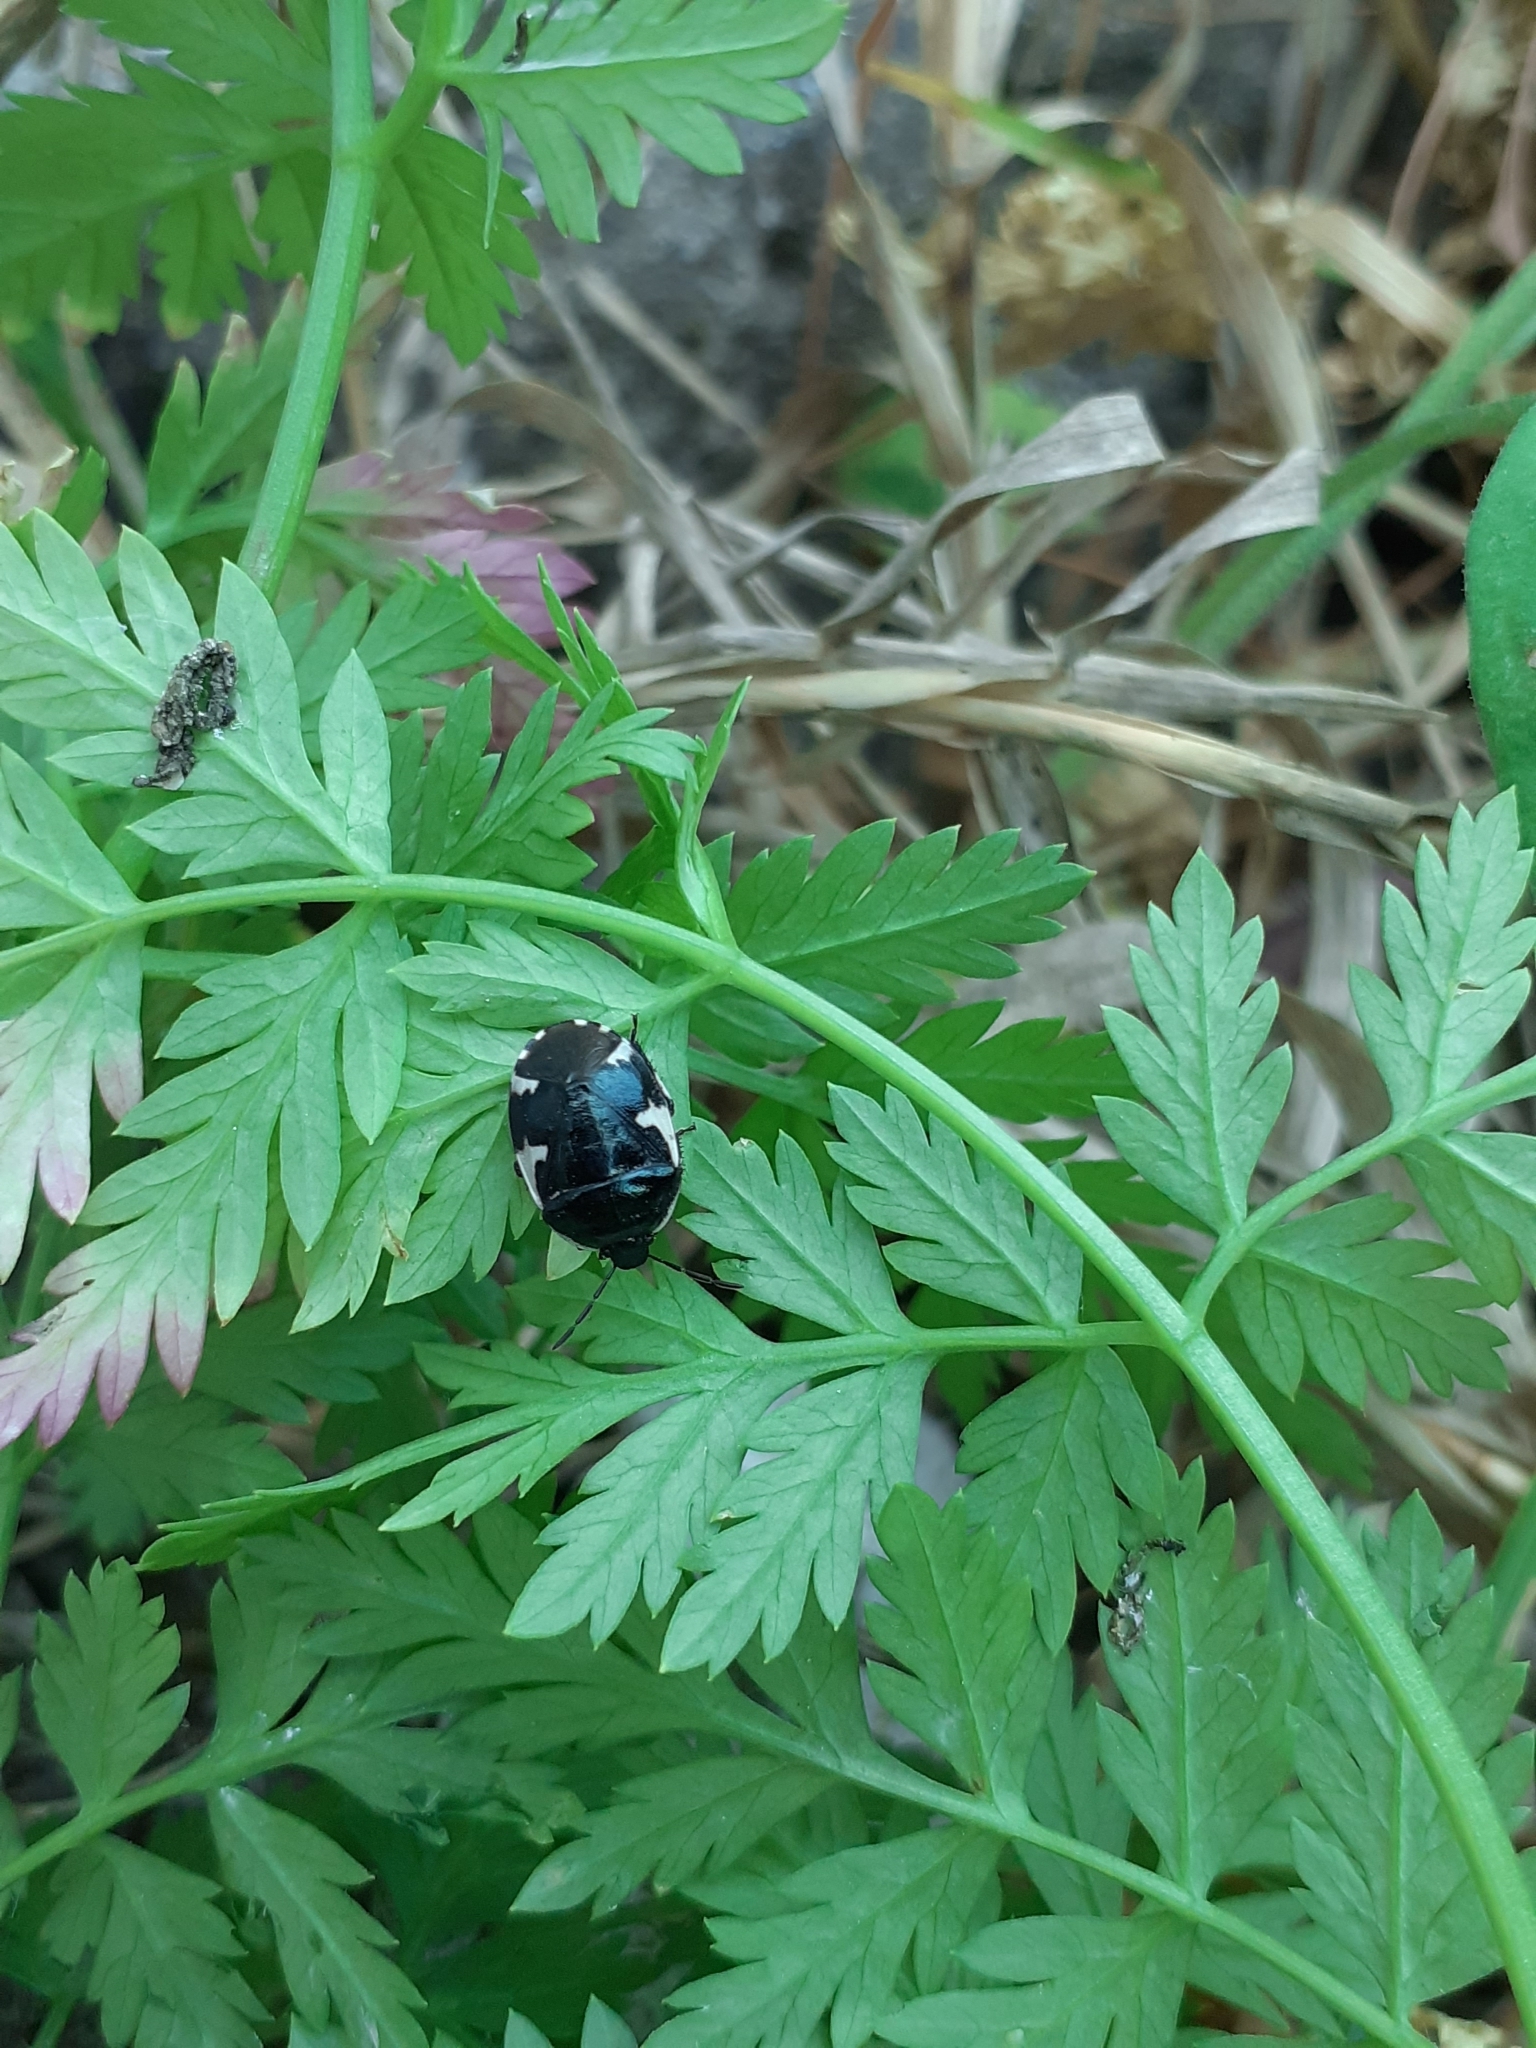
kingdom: Animalia
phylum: Arthropoda
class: Insecta
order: Hemiptera
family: Cydnidae
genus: Tritomegas
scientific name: Tritomegas sexmaculatus
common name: Rambur's pied shieldbug
